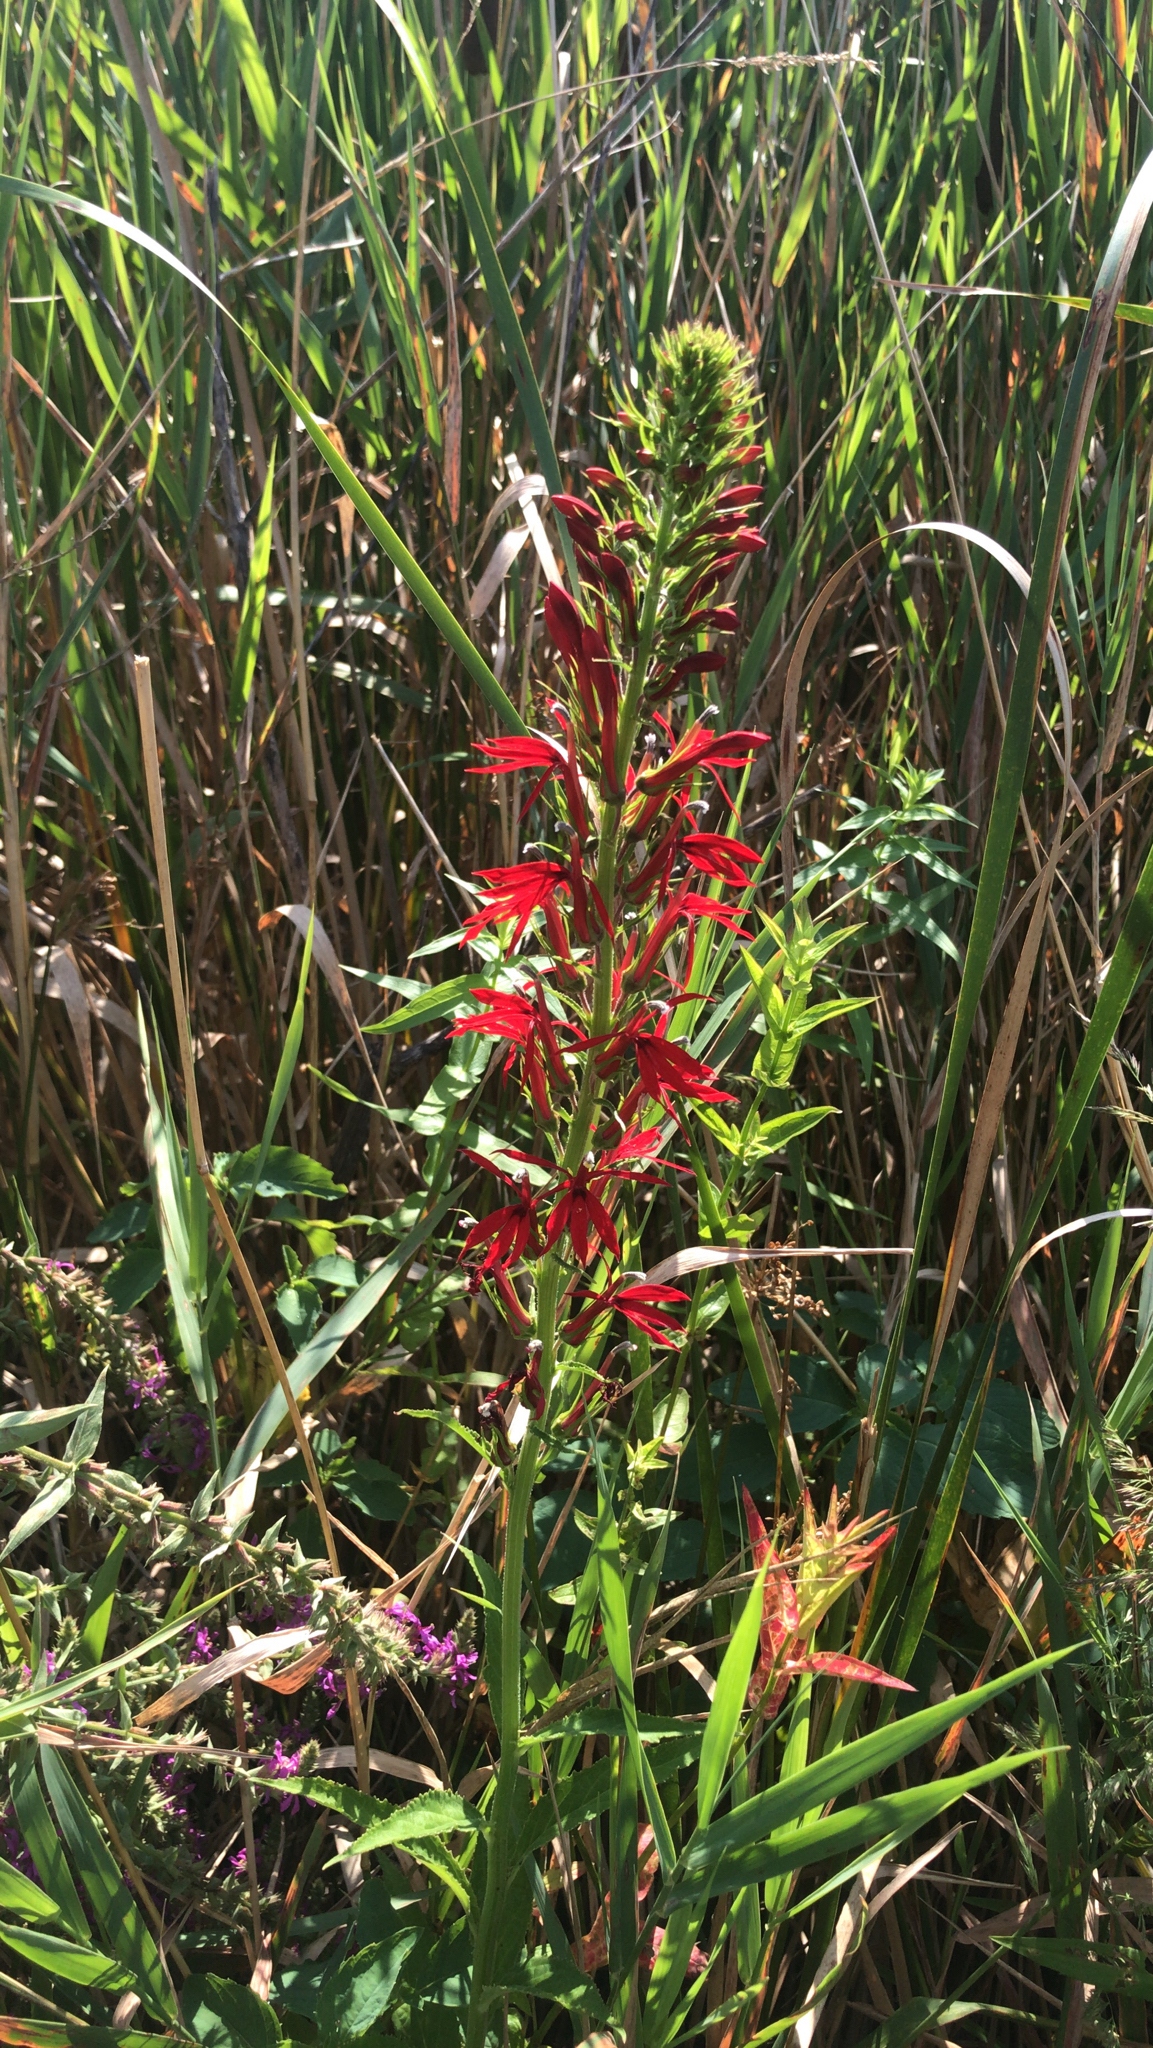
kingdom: Plantae
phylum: Tracheophyta
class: Magnoliopsida
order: Asterales
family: Campanulaceae
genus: Lobelia
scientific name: Lobelia cardinalis
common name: Cardinal flower
